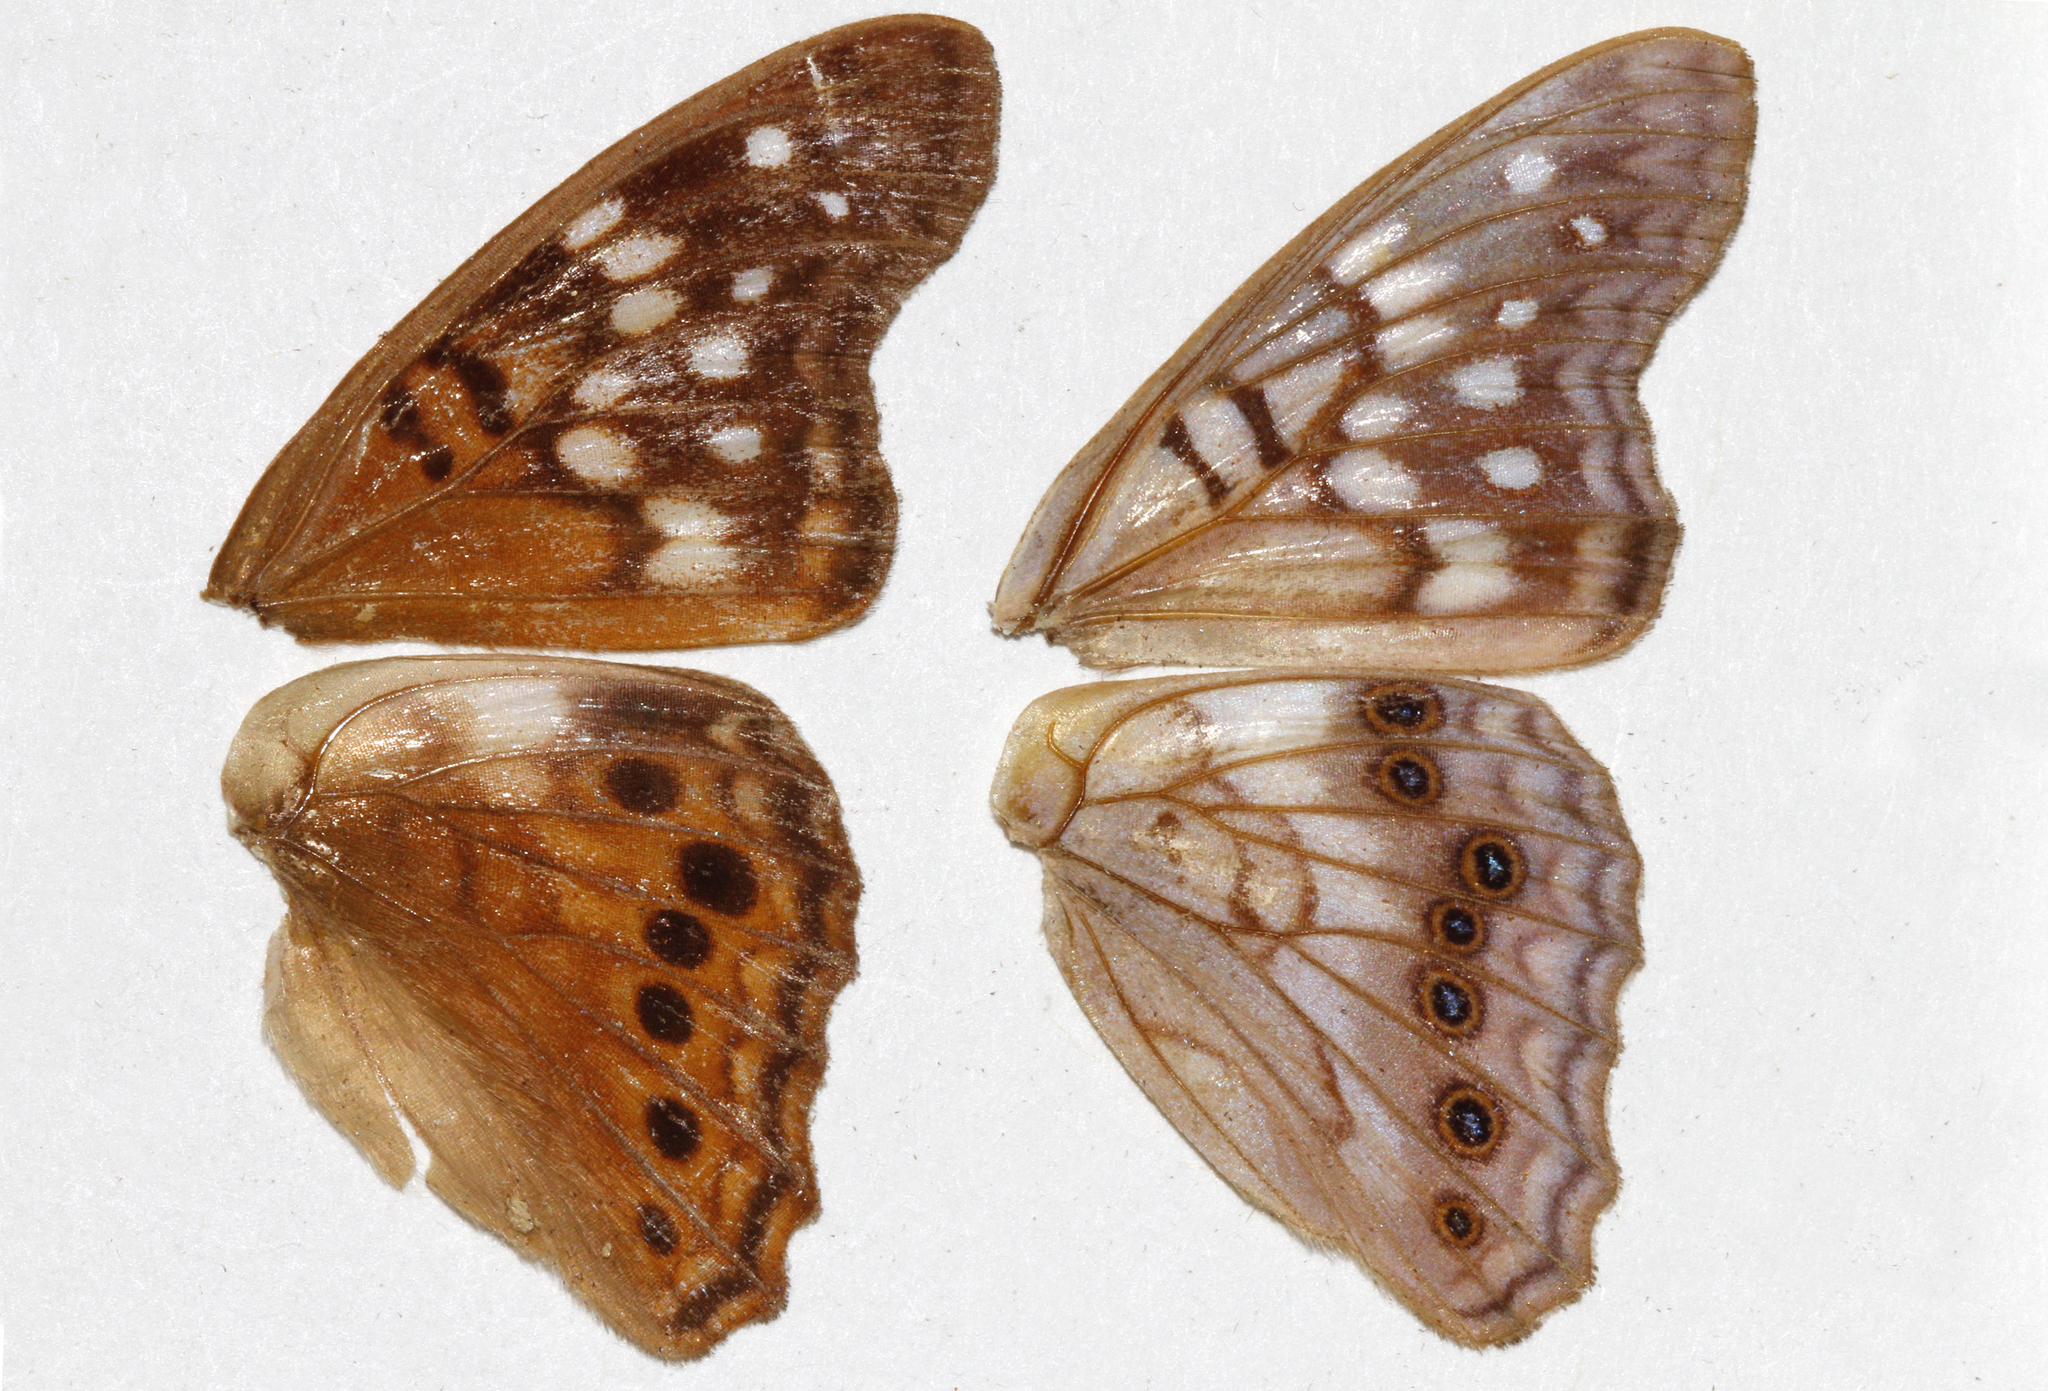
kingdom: Animalia
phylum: Arthropoda
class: Insecta
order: Lepidoptera
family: Nymphalidae
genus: Asterocampa
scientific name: Asterocampa clyton
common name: Tawny emperor
